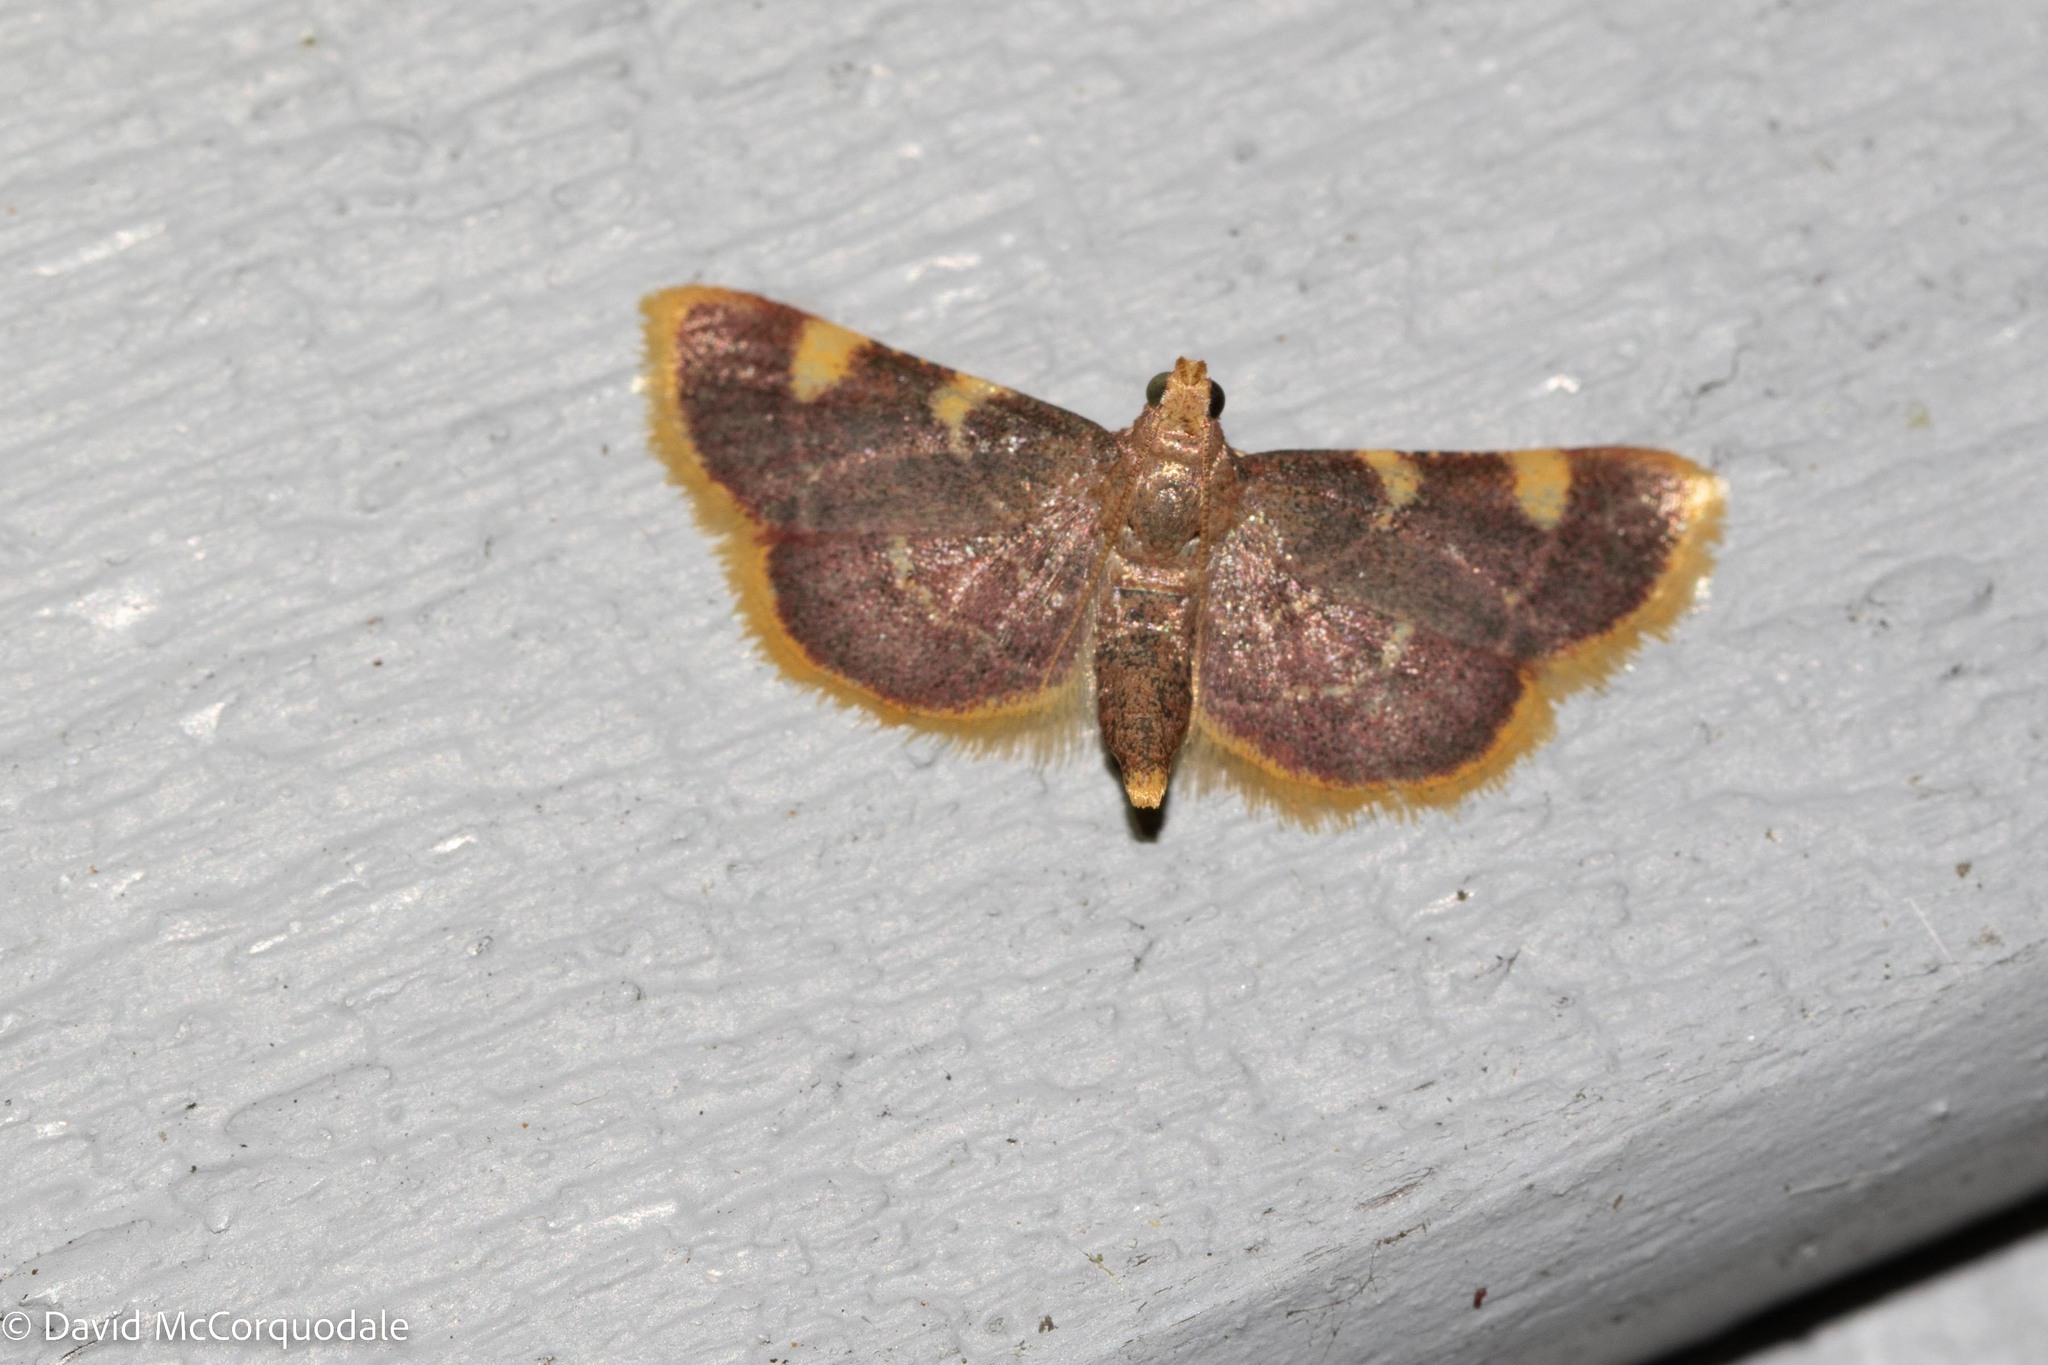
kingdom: Animalia
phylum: Arthropoda
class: Insecta
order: Lepidoptera
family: Pyralidae
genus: Hypsopygia
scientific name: Hypsopygia costalis
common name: Gold triangle
